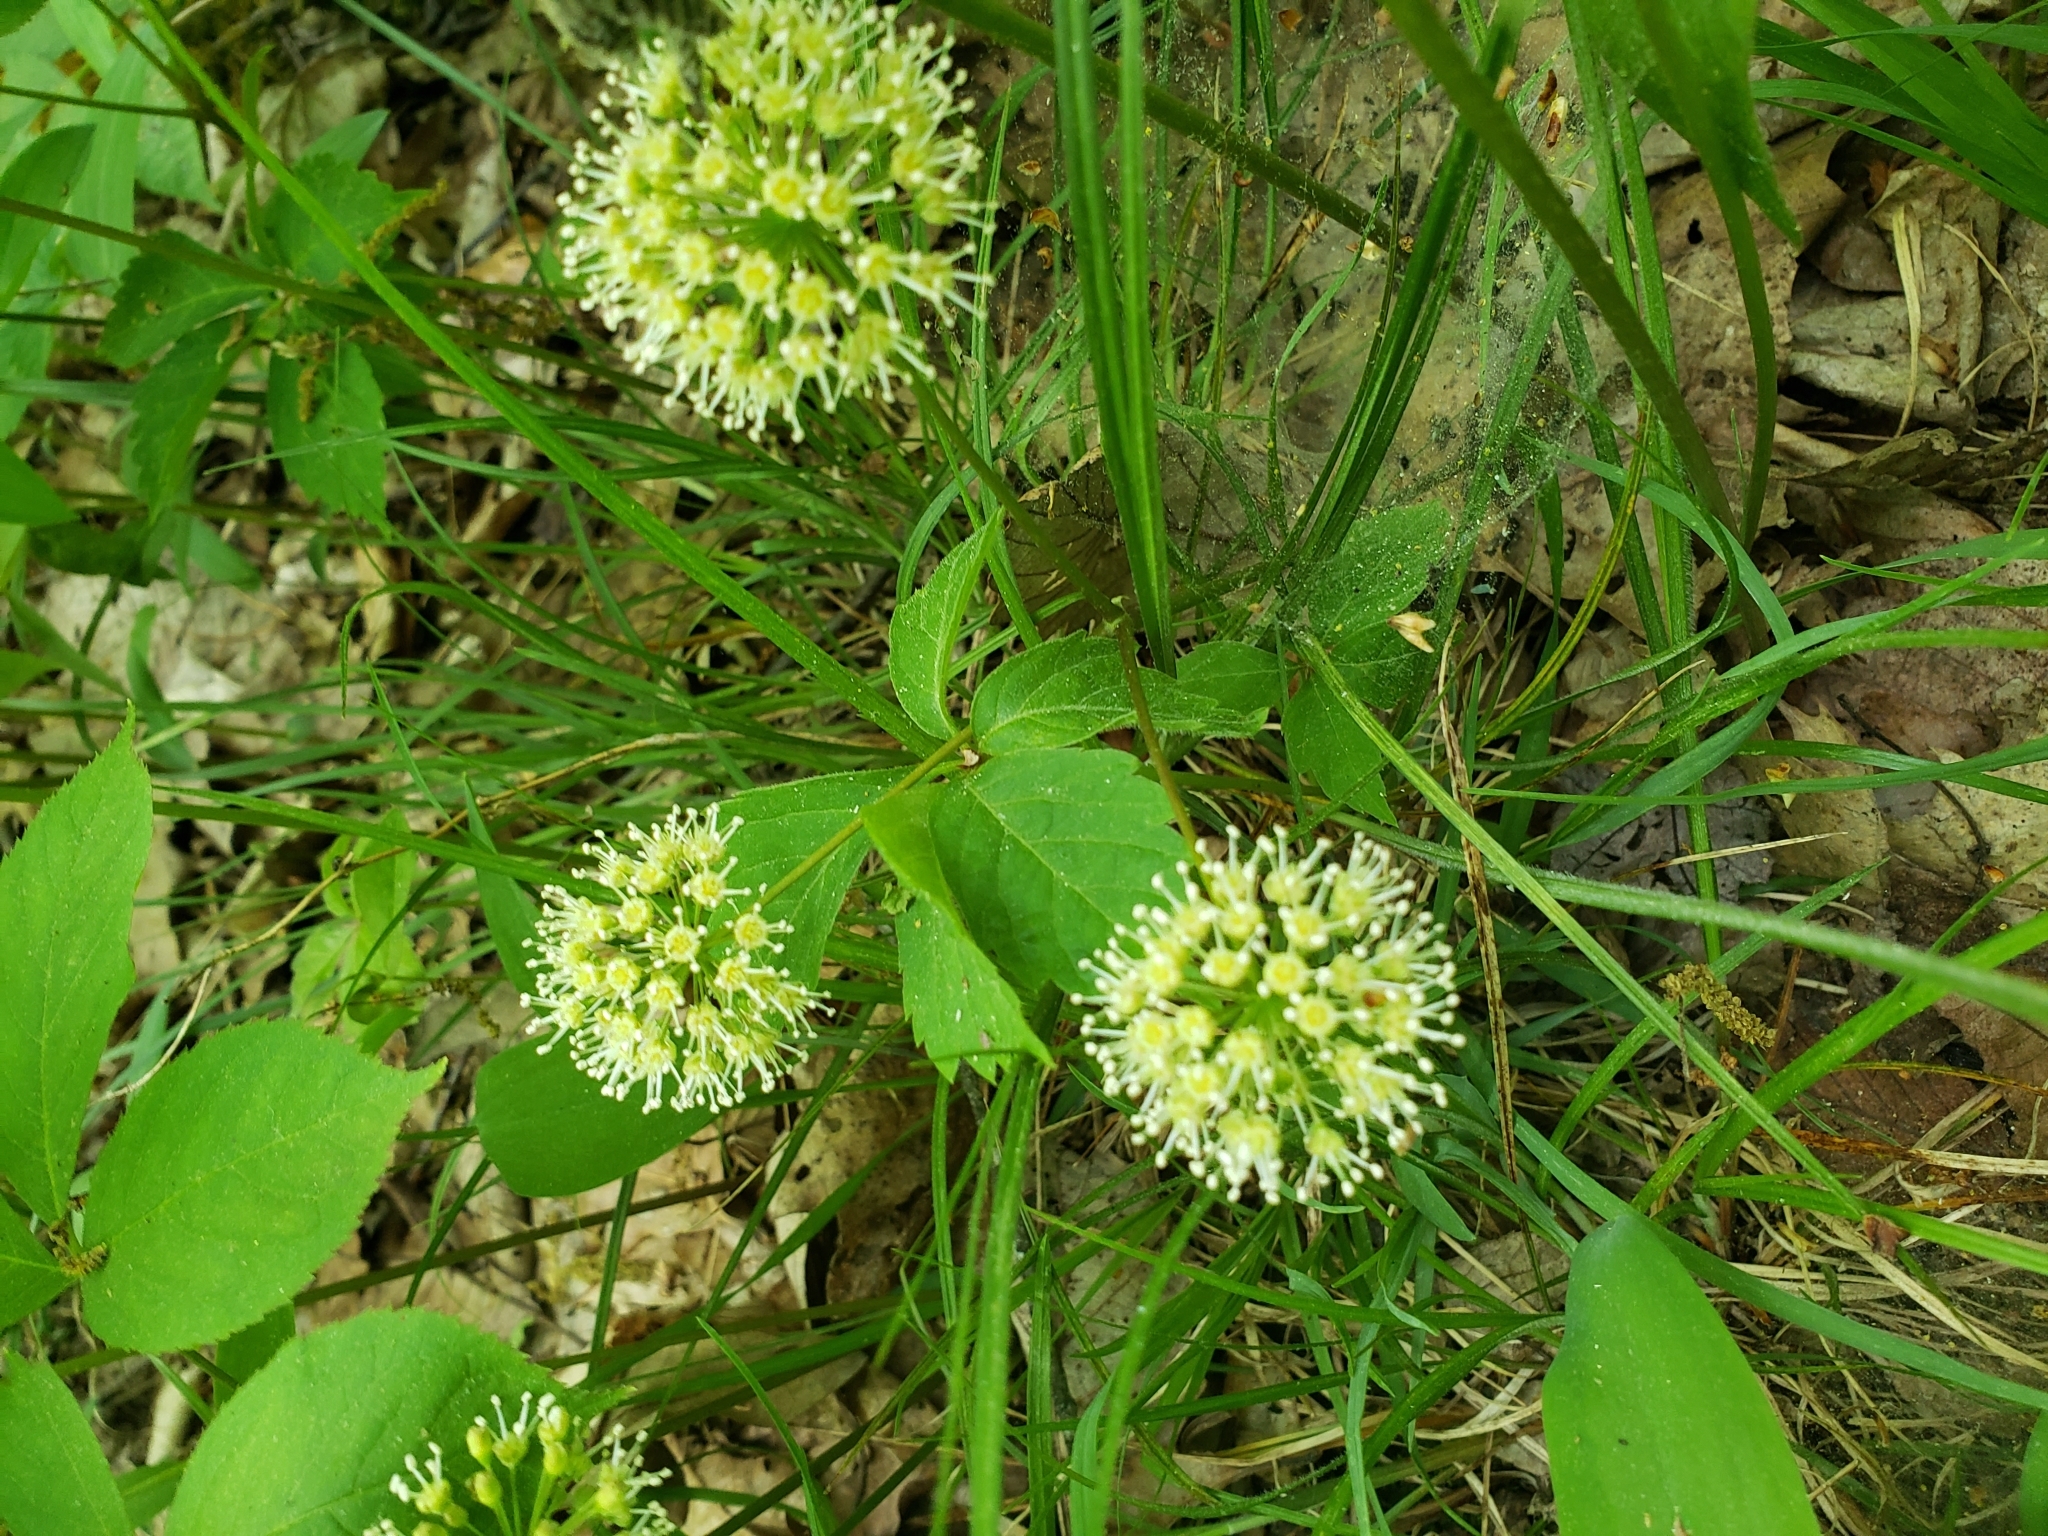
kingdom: Plantae
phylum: Tracheophyta
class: Magnoliopsida
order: Apiales
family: Araliaceae
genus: Aralia
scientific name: Aralia nudicaulis
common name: Wild sarsaparilla
